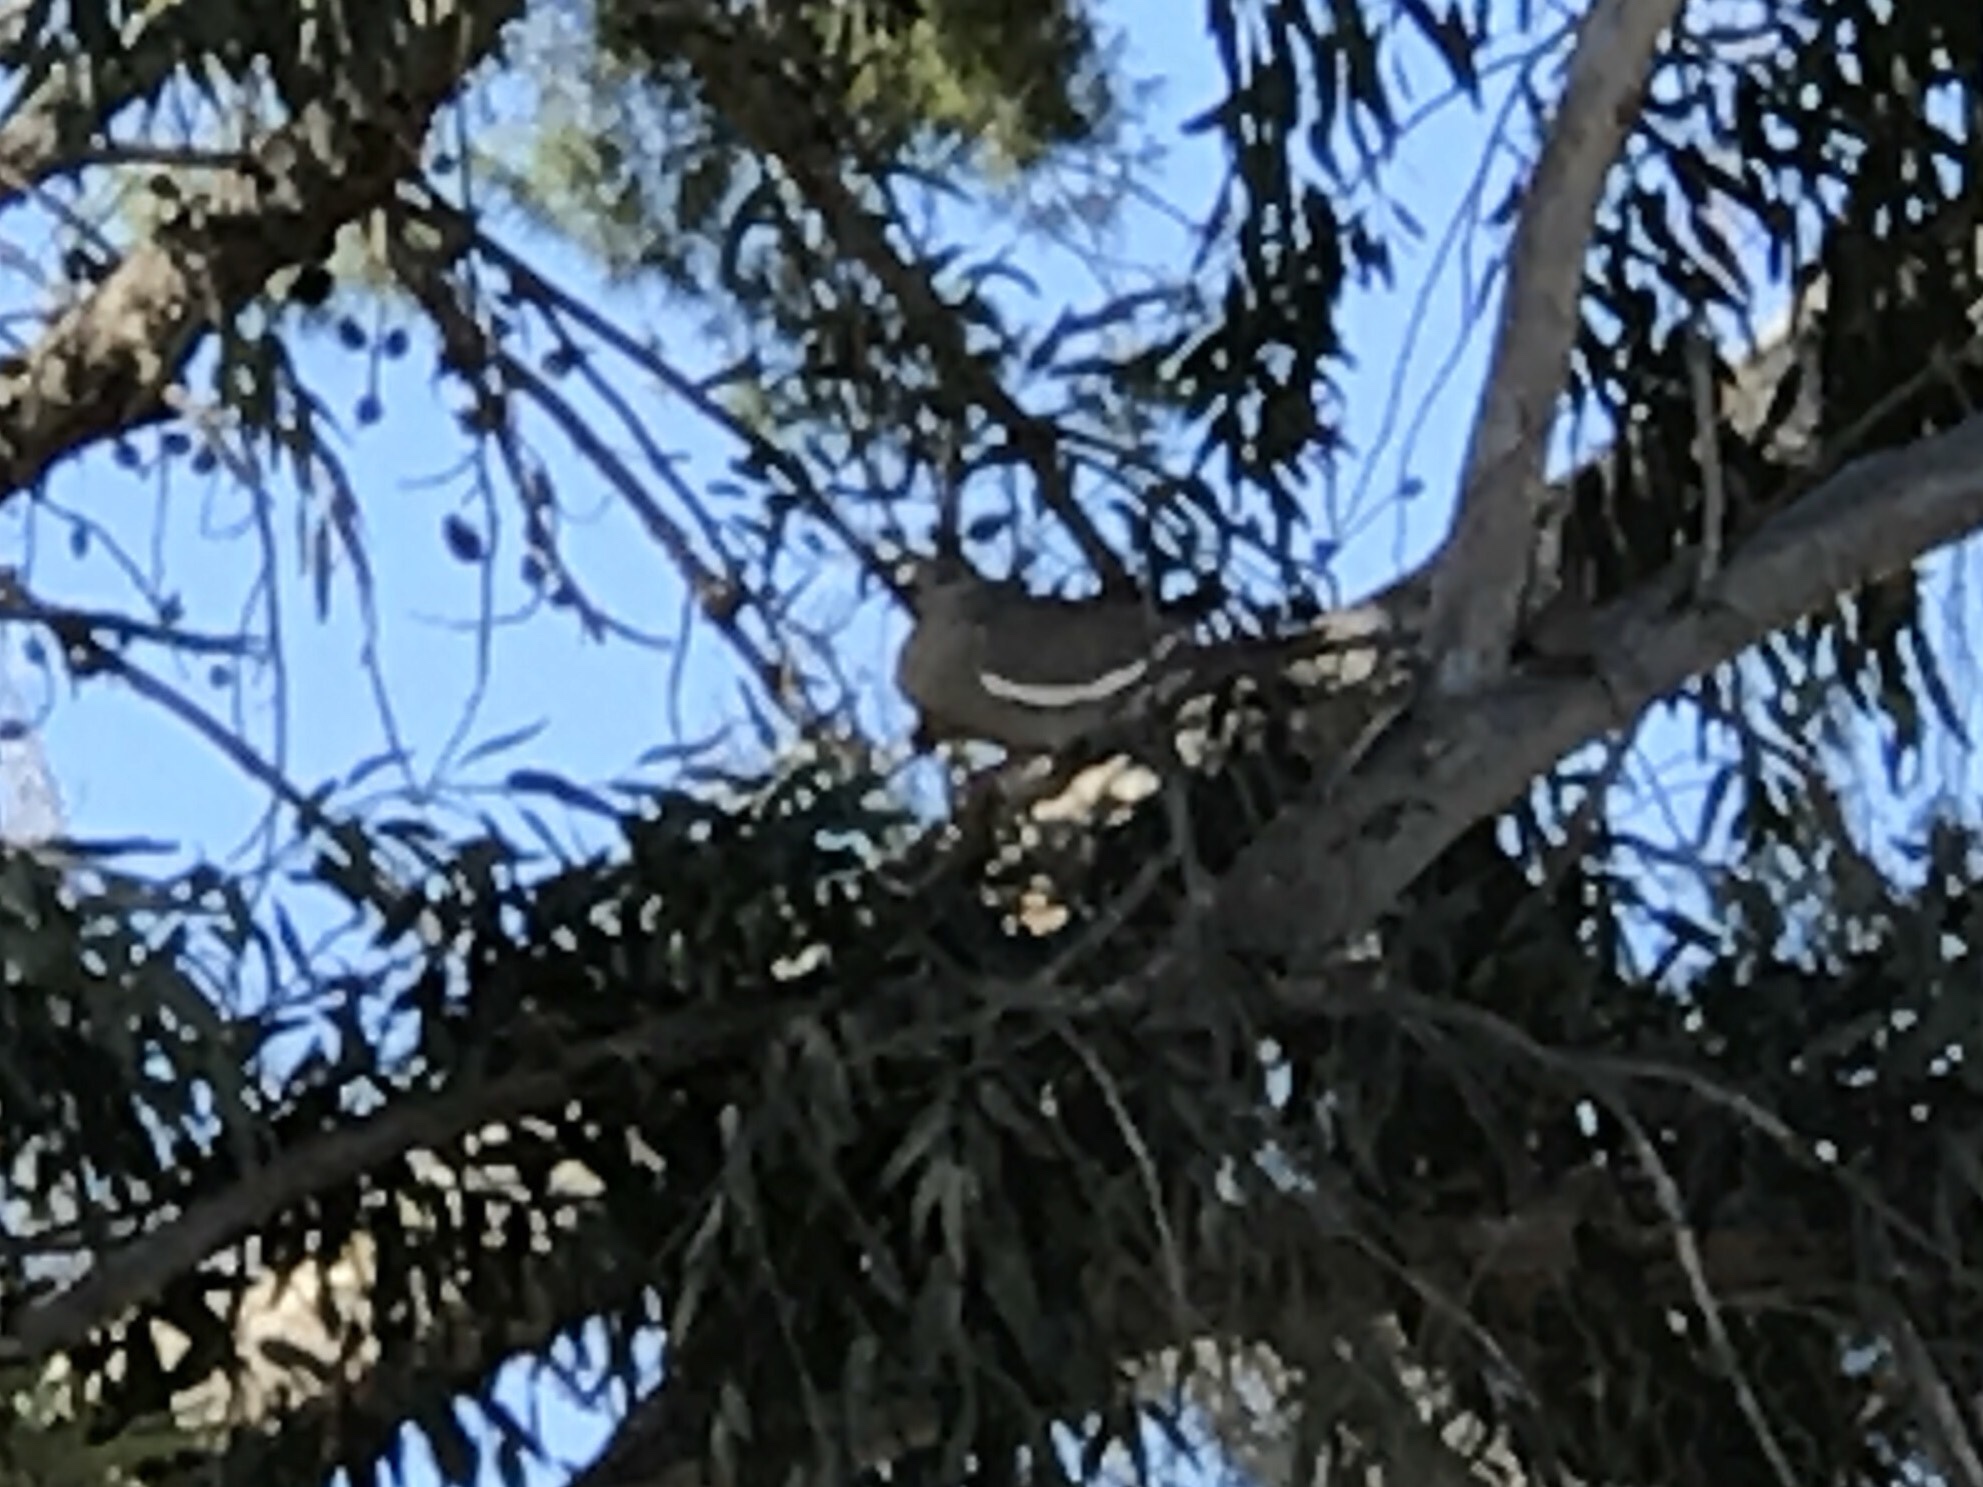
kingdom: Animalia
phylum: Chordata
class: Aves
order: Columbiformes
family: Columbidae
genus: Zenaida
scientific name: Zenaida asiatica
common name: White-winged dove
